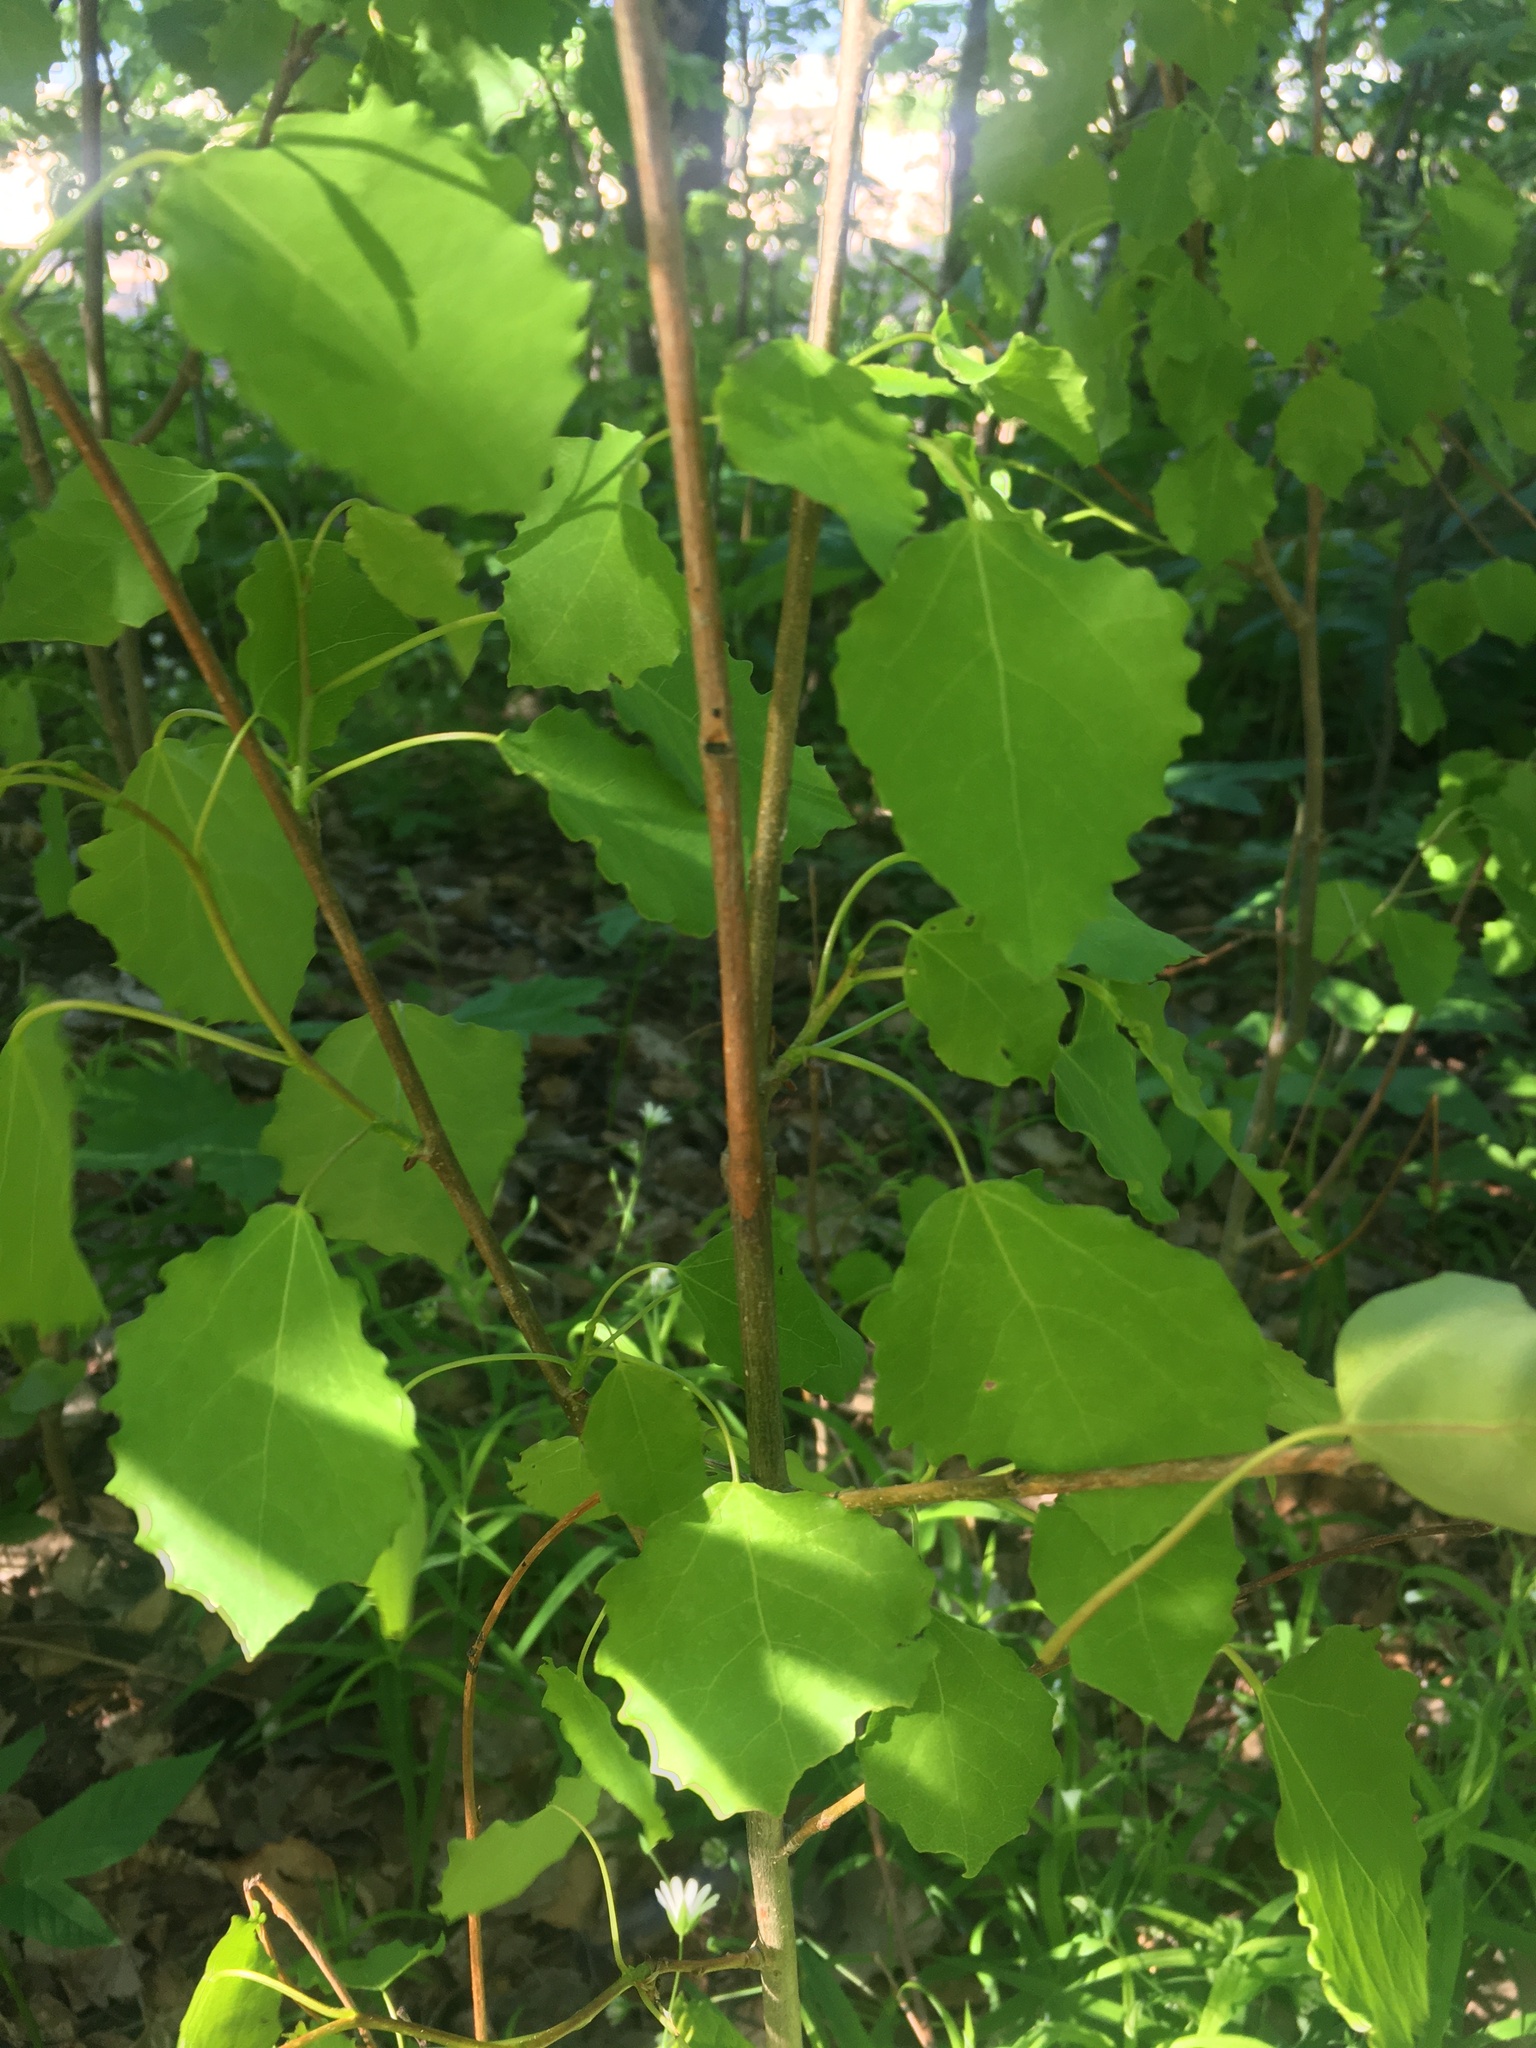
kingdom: Plantae
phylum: Tracheophyta
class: Magnoliopsida
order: Malpighiales
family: Salicaceae
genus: Populus
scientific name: Populus tremula
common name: European aspen
